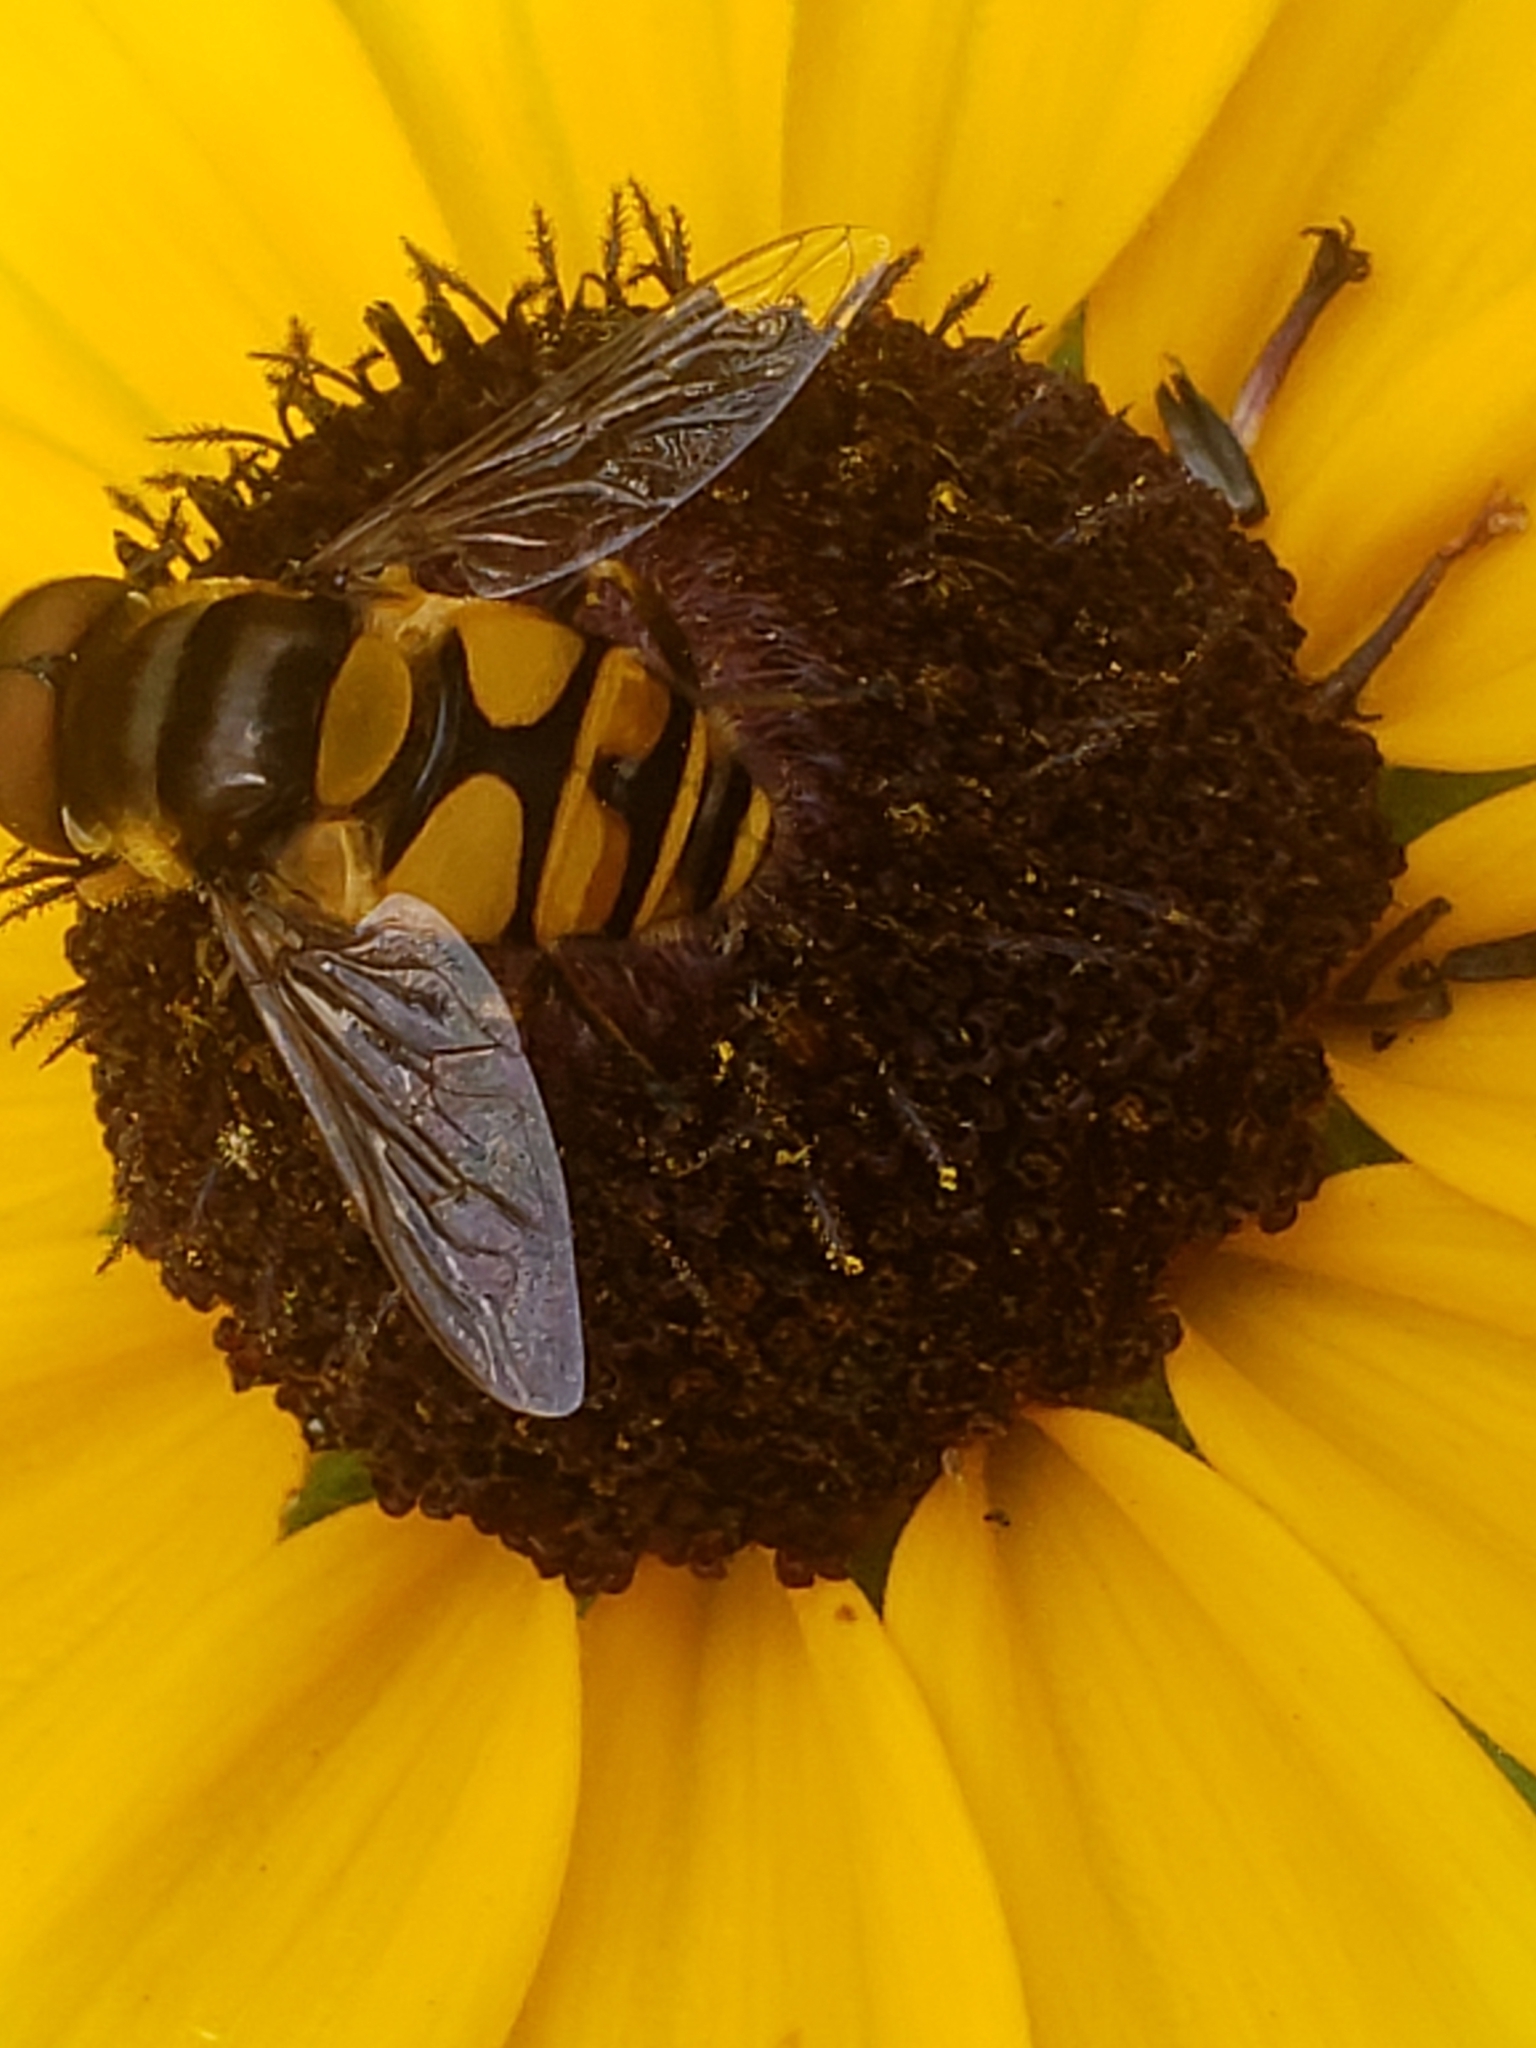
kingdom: Animalia
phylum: Arthropoda
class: Insecta
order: Diptera
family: Syrphidae
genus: Eristalis
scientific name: Eristalis transversa
